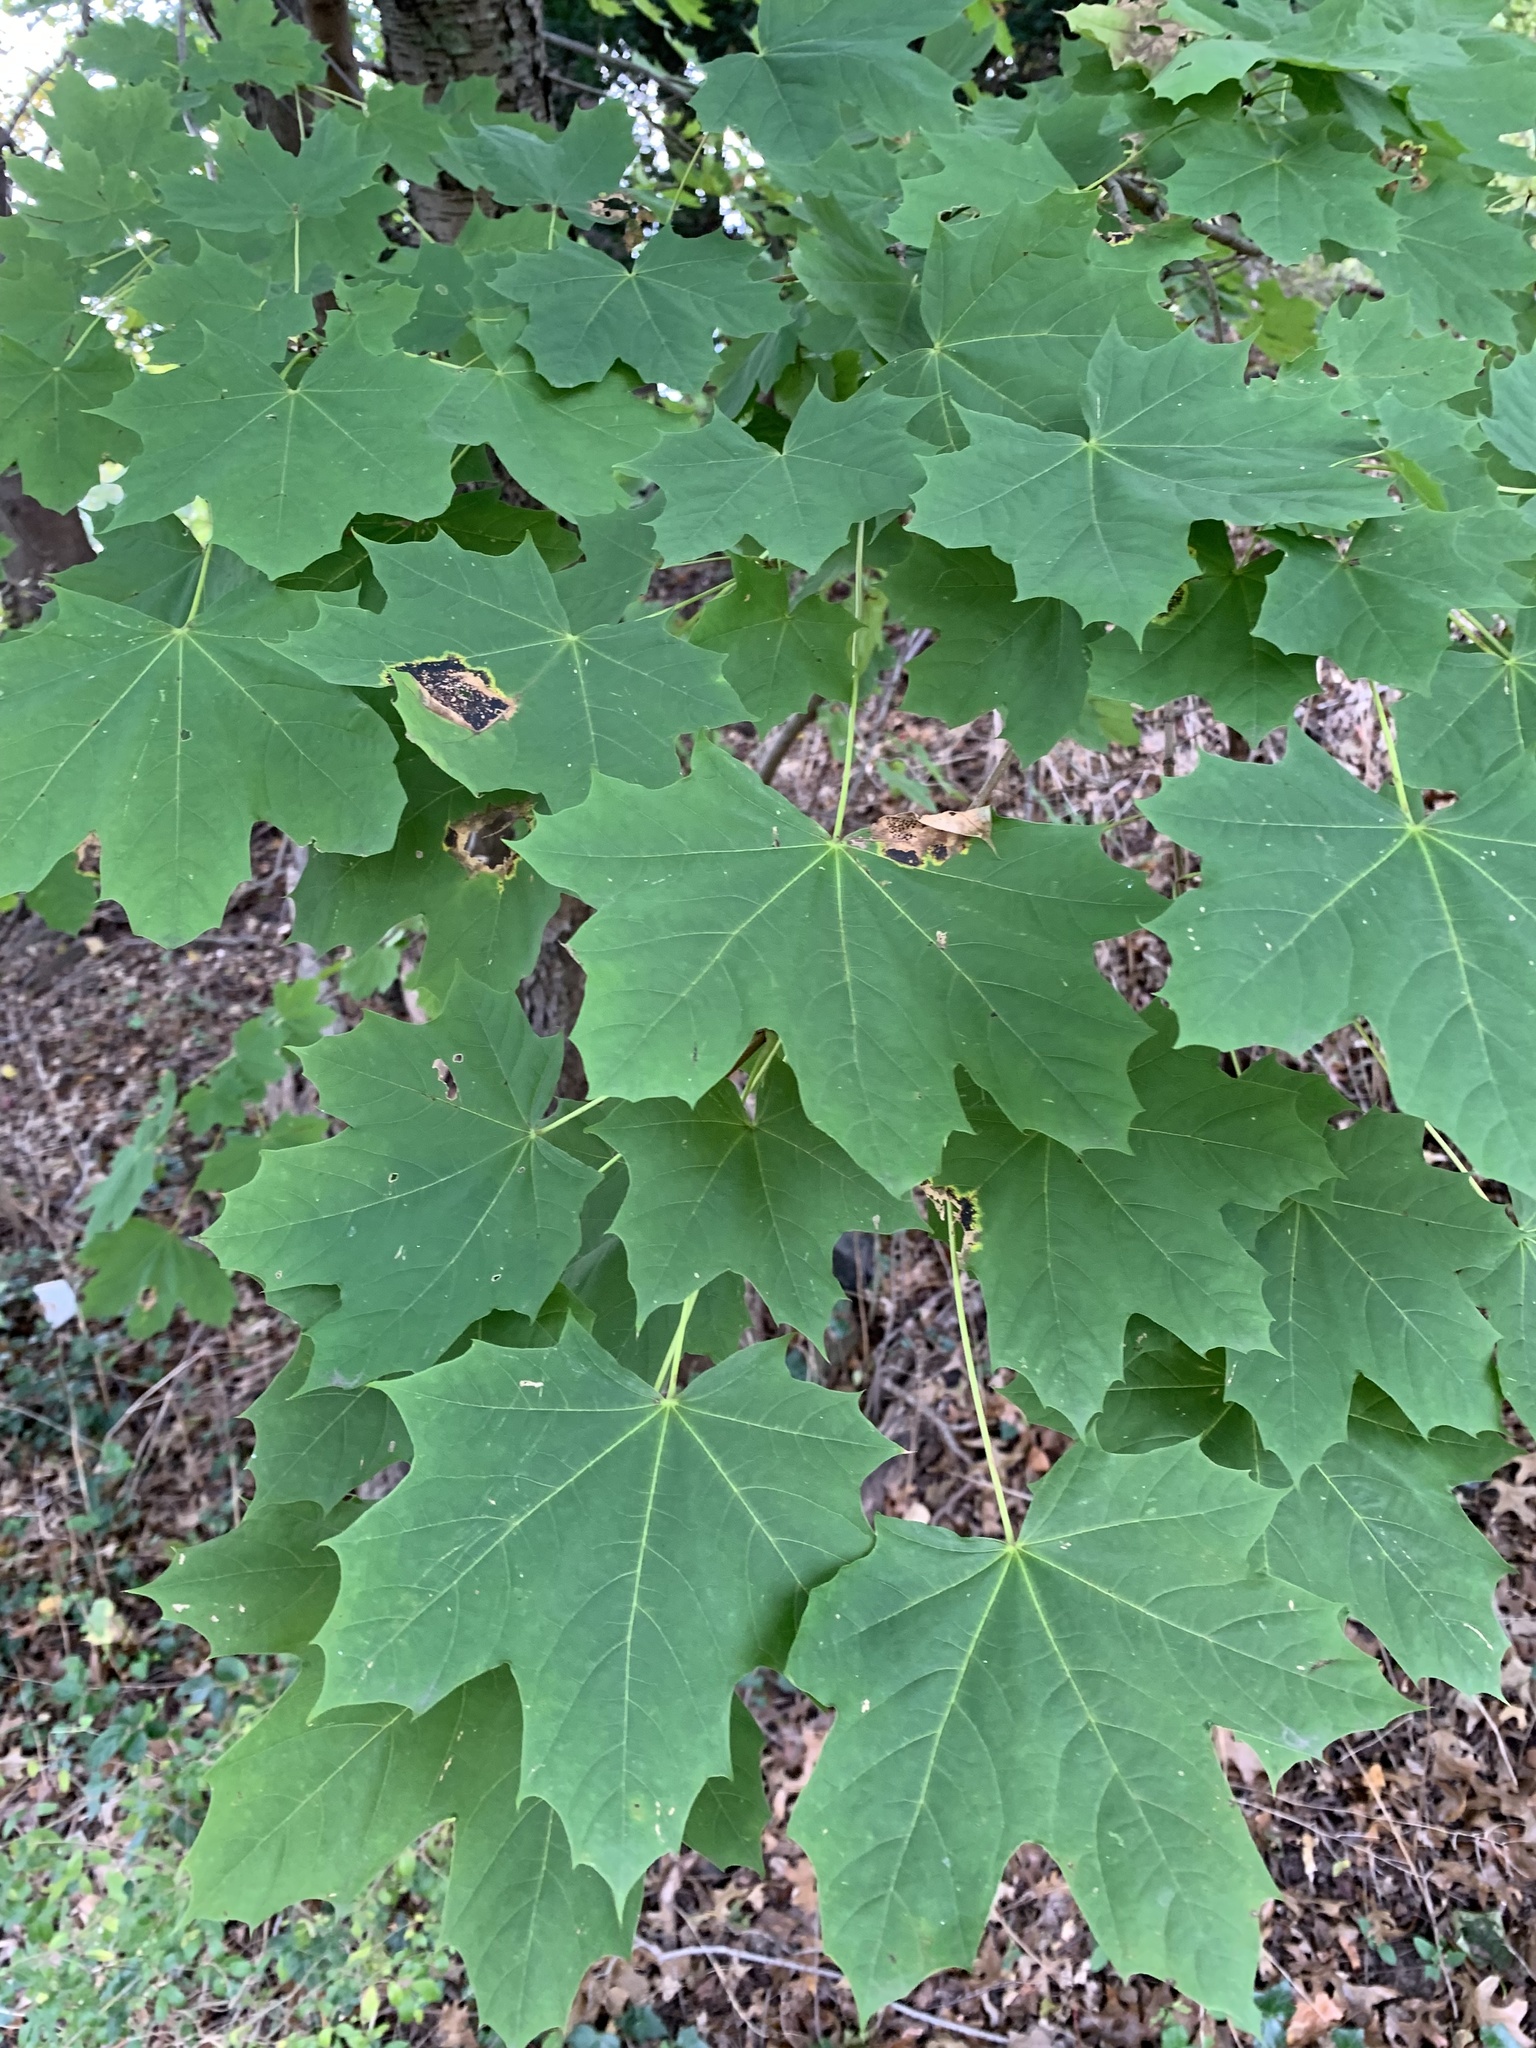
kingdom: Plantae
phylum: Tracheophyta
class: Magnoliopsida
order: Sapindales
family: Sapindaceae
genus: Acer
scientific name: Acer platanoides
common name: Norway maple
